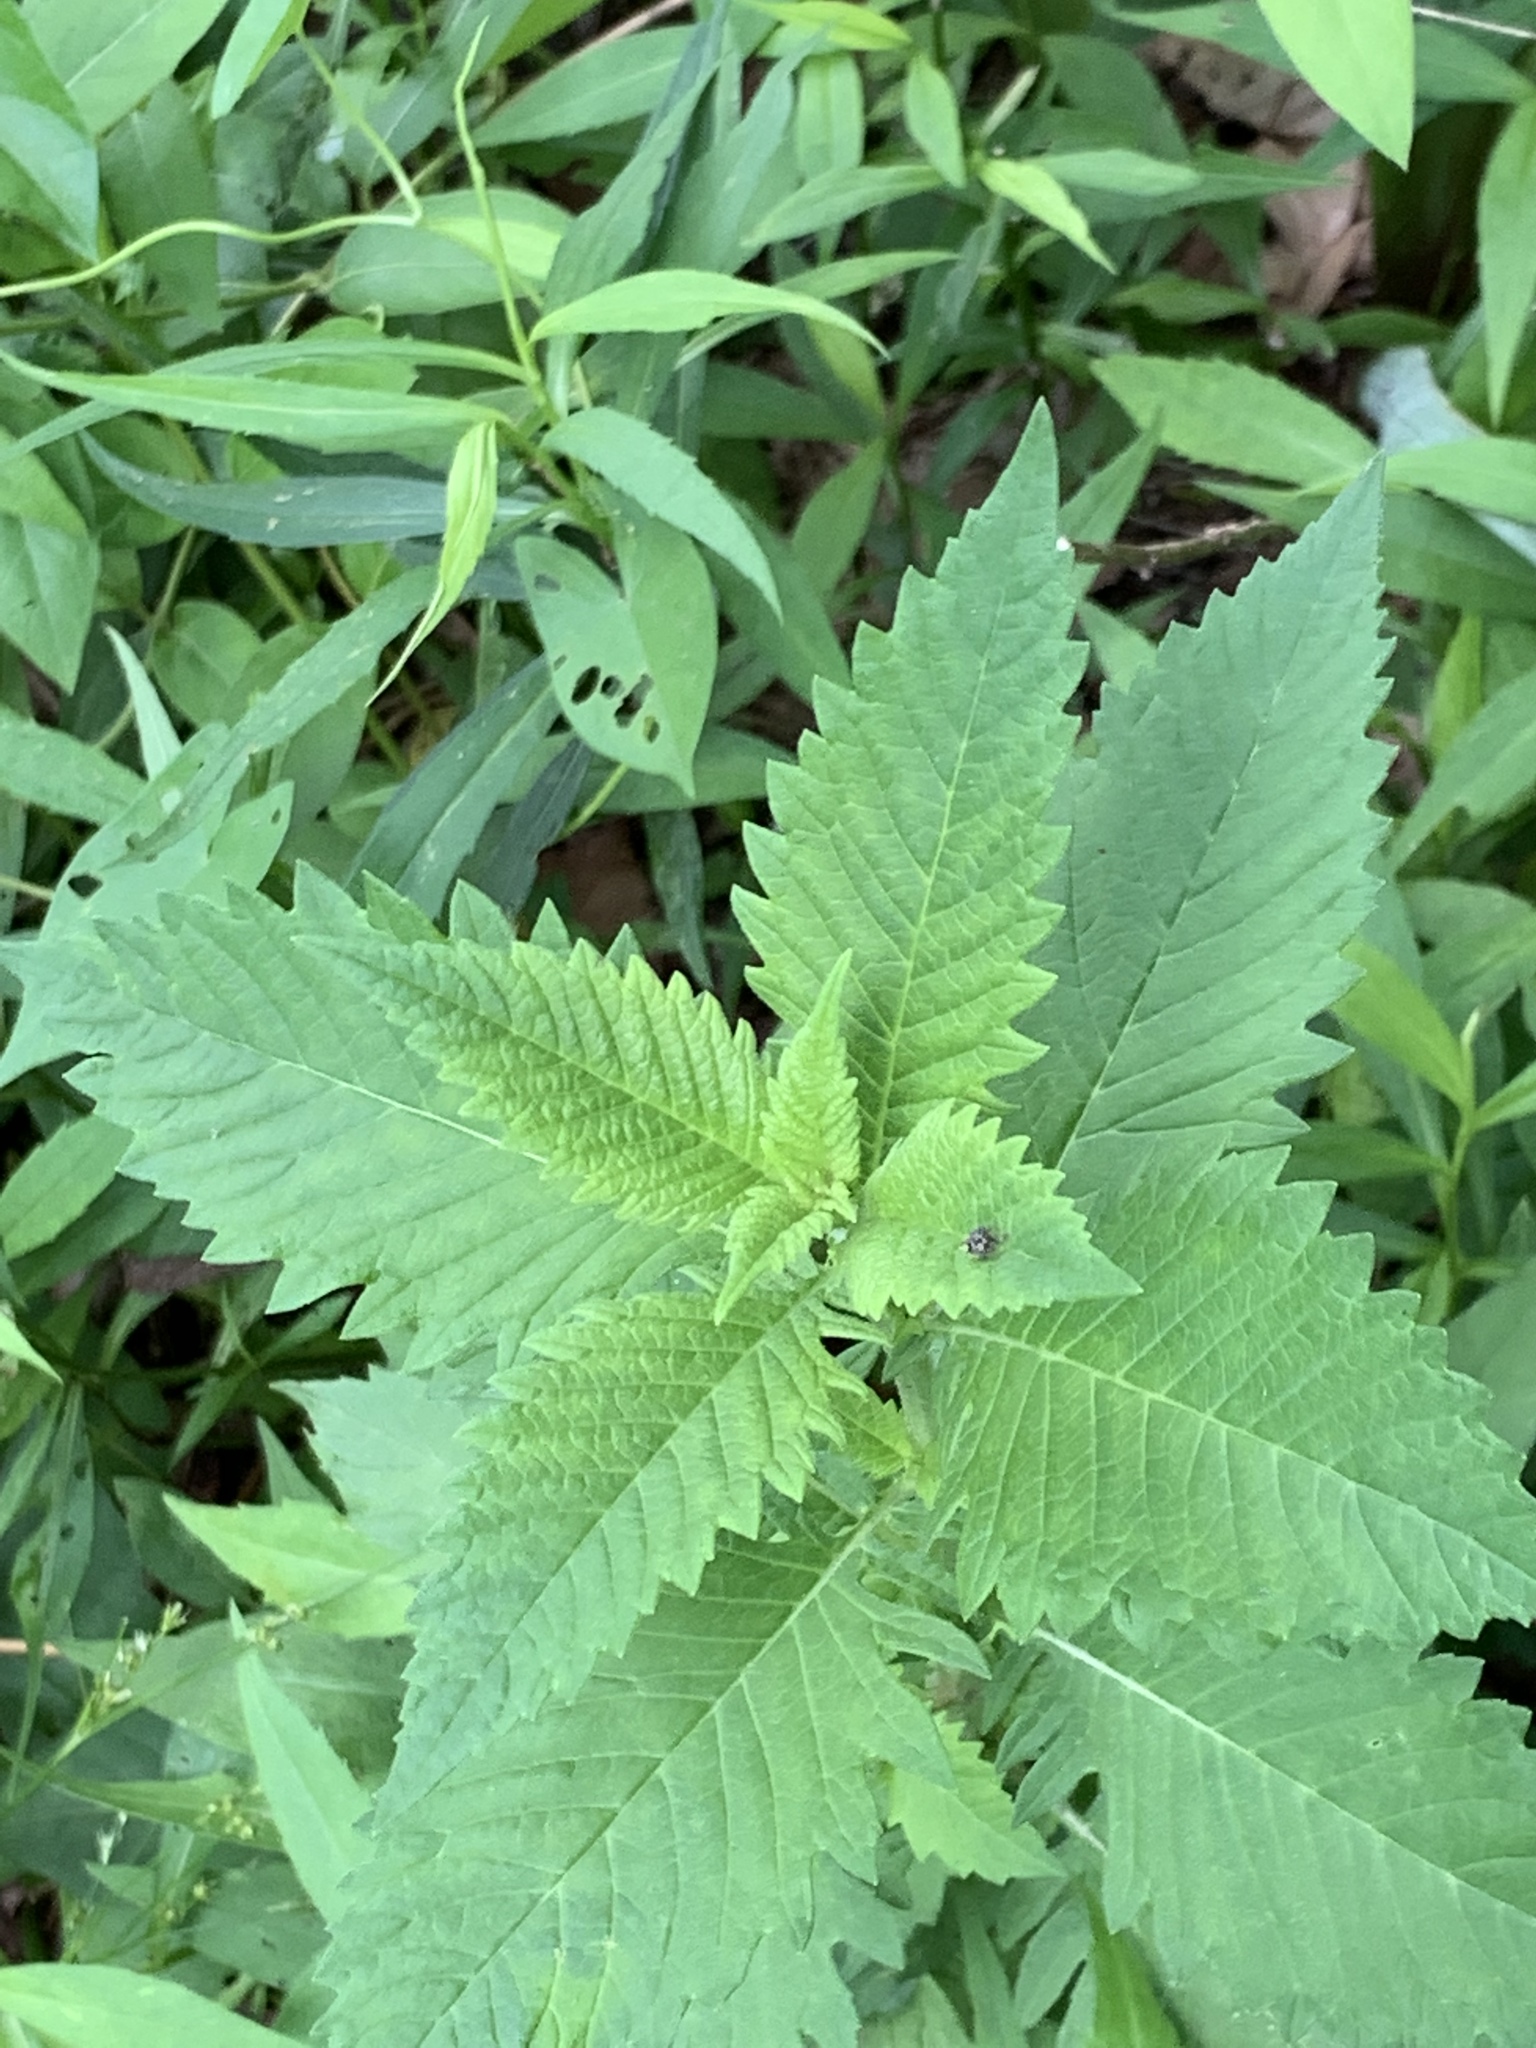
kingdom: Plantae
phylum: Tracheophyta
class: Magnoliopsida
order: Caryophyllales
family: Amaranthaceae
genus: Dysphania
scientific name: Dysphania ambrosioides
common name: Wormseed
